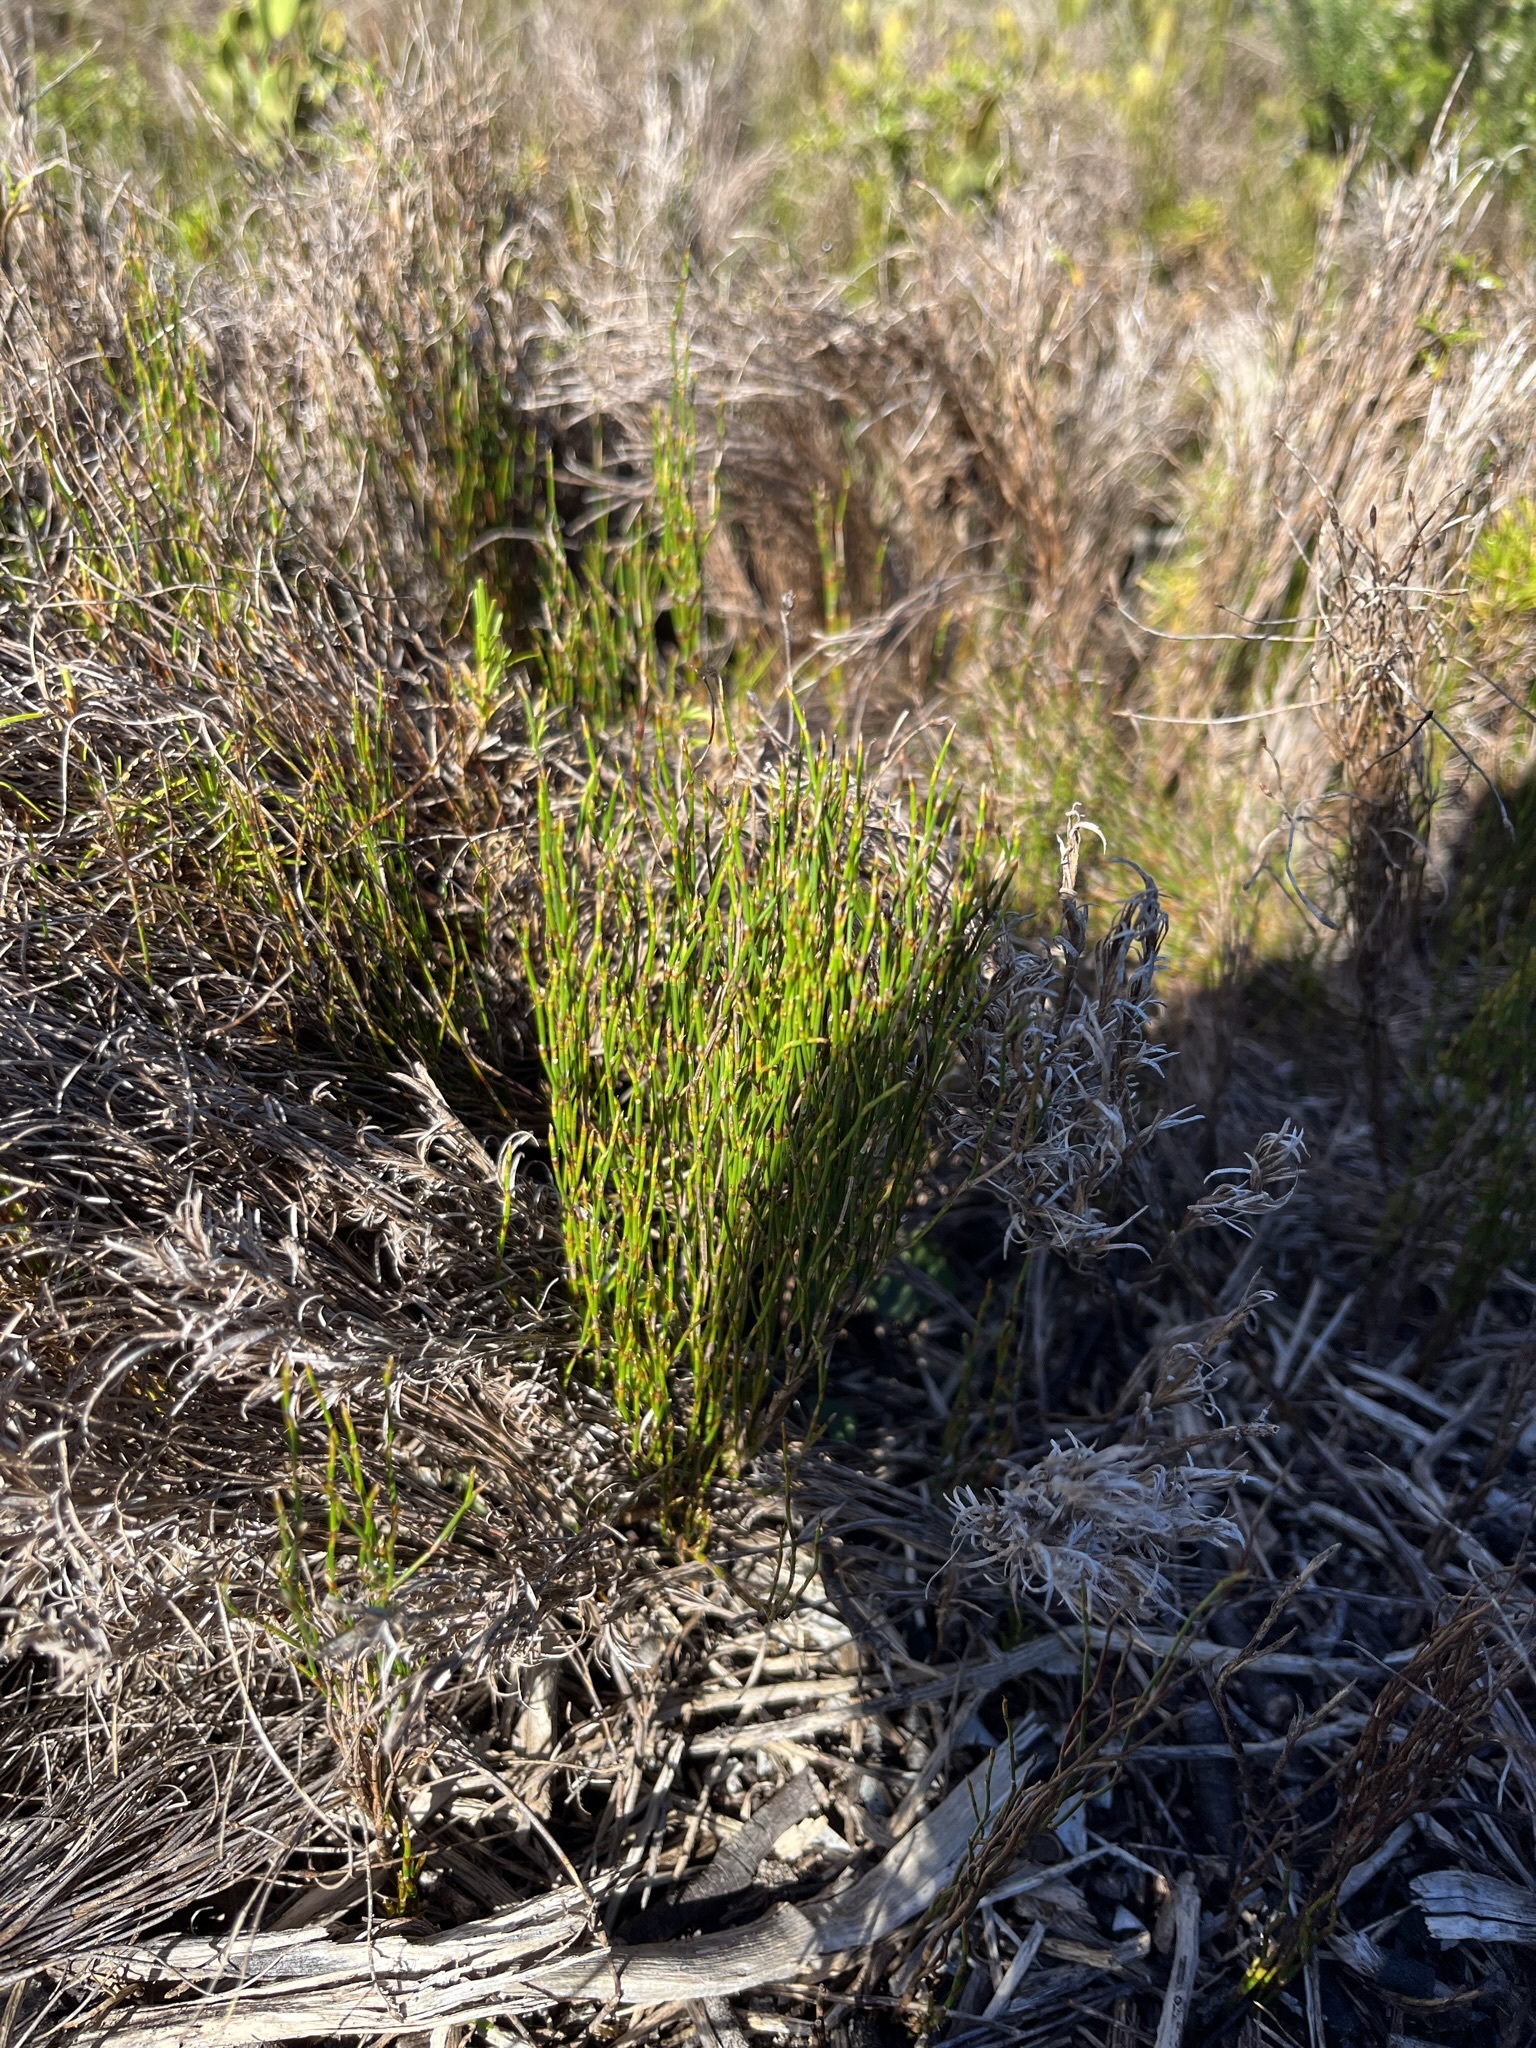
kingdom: Plantae
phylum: Tracheophyta
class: Liliopsida
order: Poales
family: Restionaceae
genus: Restio
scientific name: Restio eleocharis
